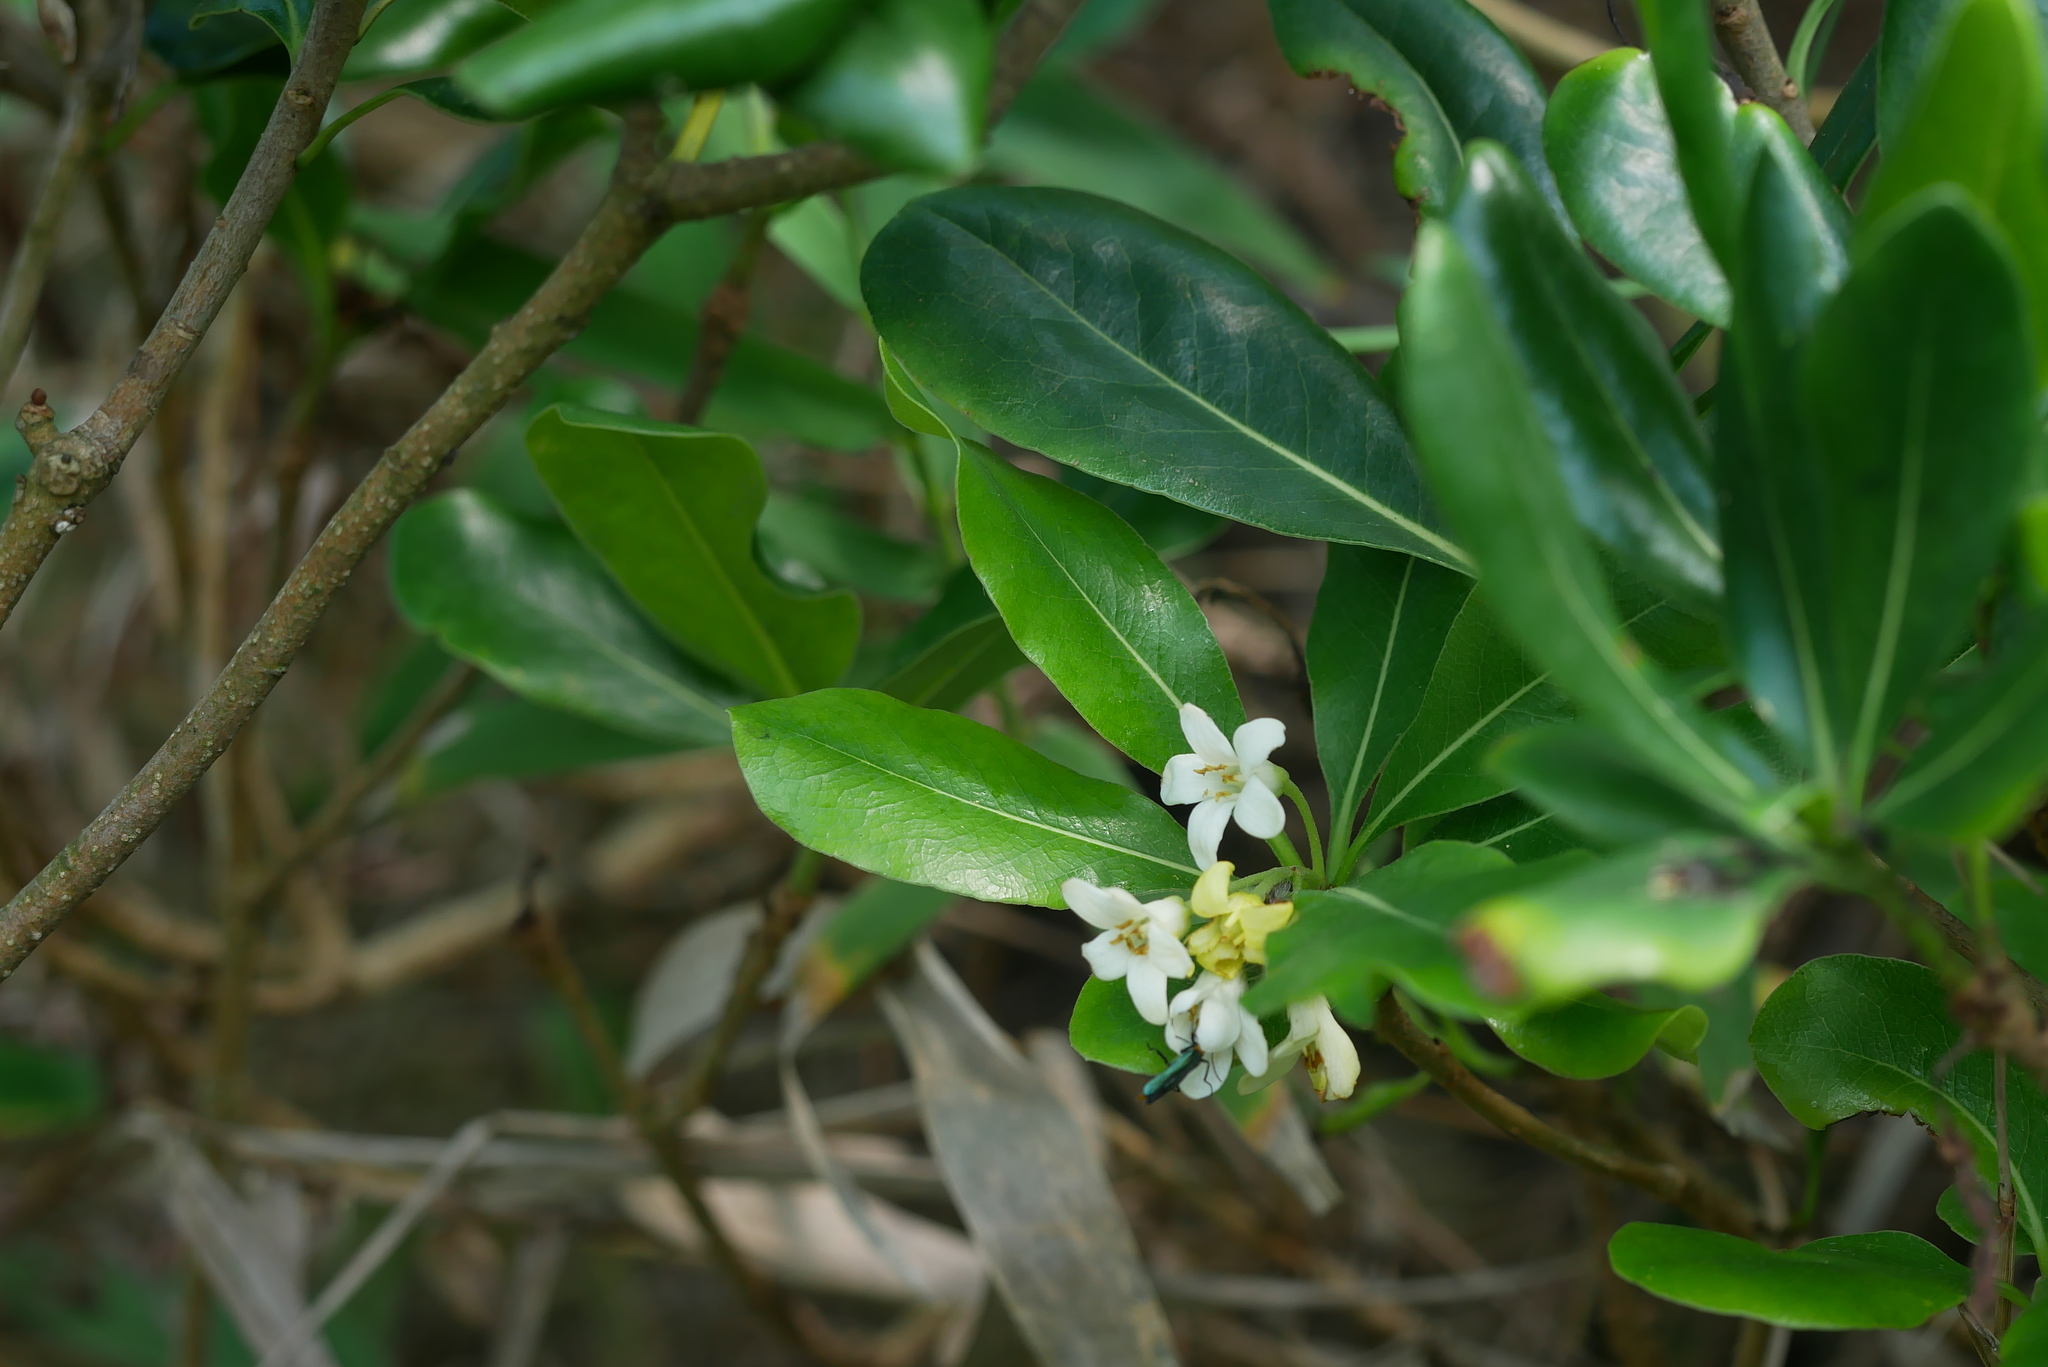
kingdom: Plantae
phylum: Tracheophyta
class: Magnoliopsida
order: Apiales
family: Pittosporaceae
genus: Pittosporum
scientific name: Pittosporum tobira
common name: Japanese cheesewood
